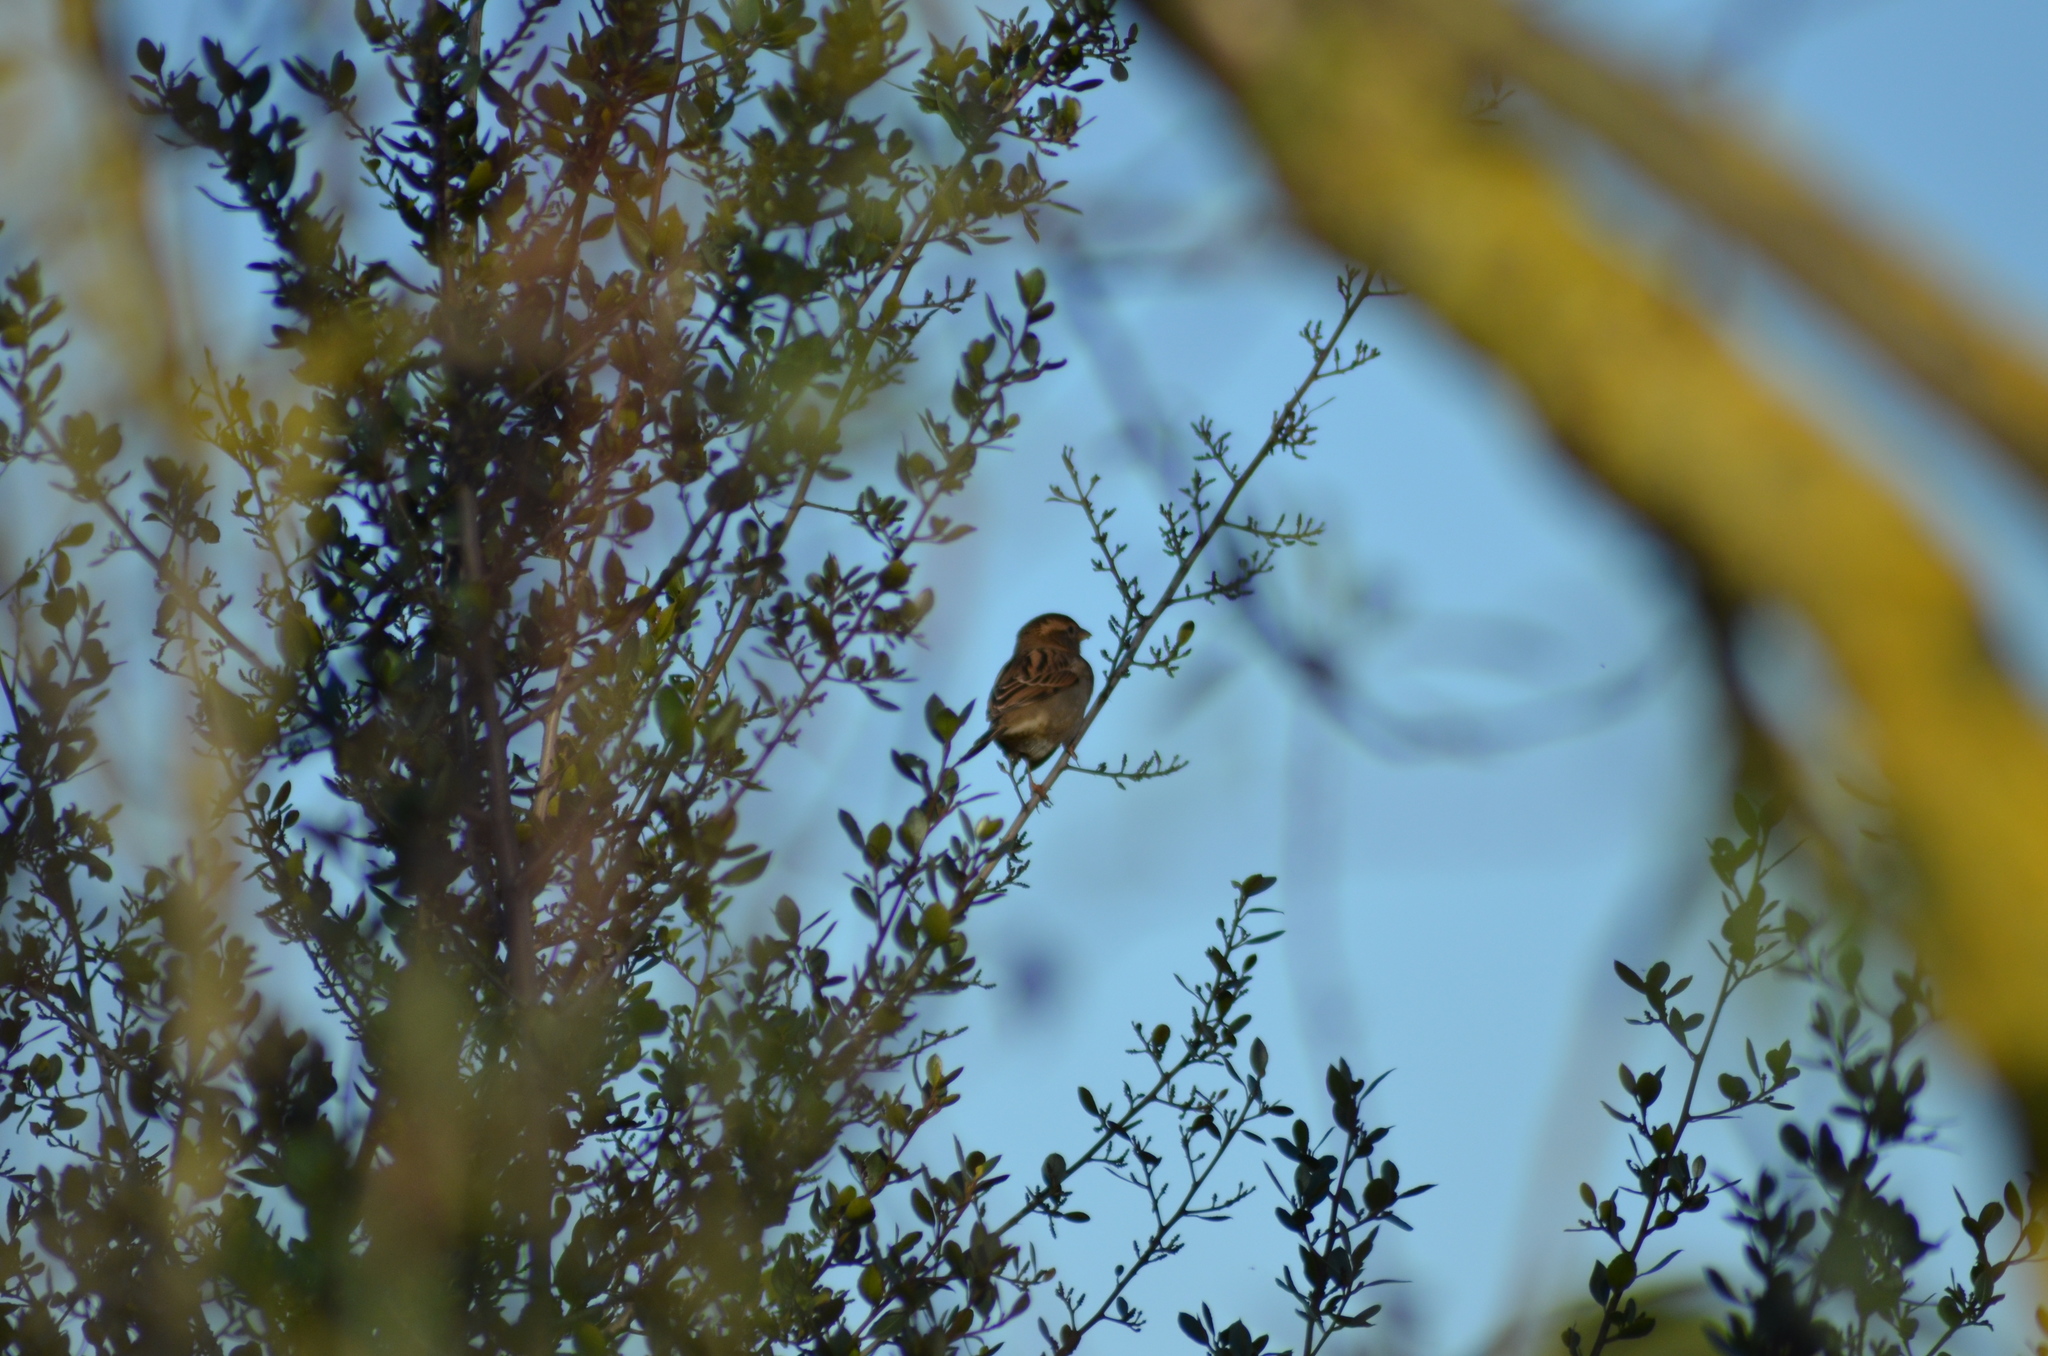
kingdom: Animalia
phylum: Chordata
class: Aves
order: Passeriformes
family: Passeridae
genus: Passer
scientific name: Passer domesticus
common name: House sparrow
